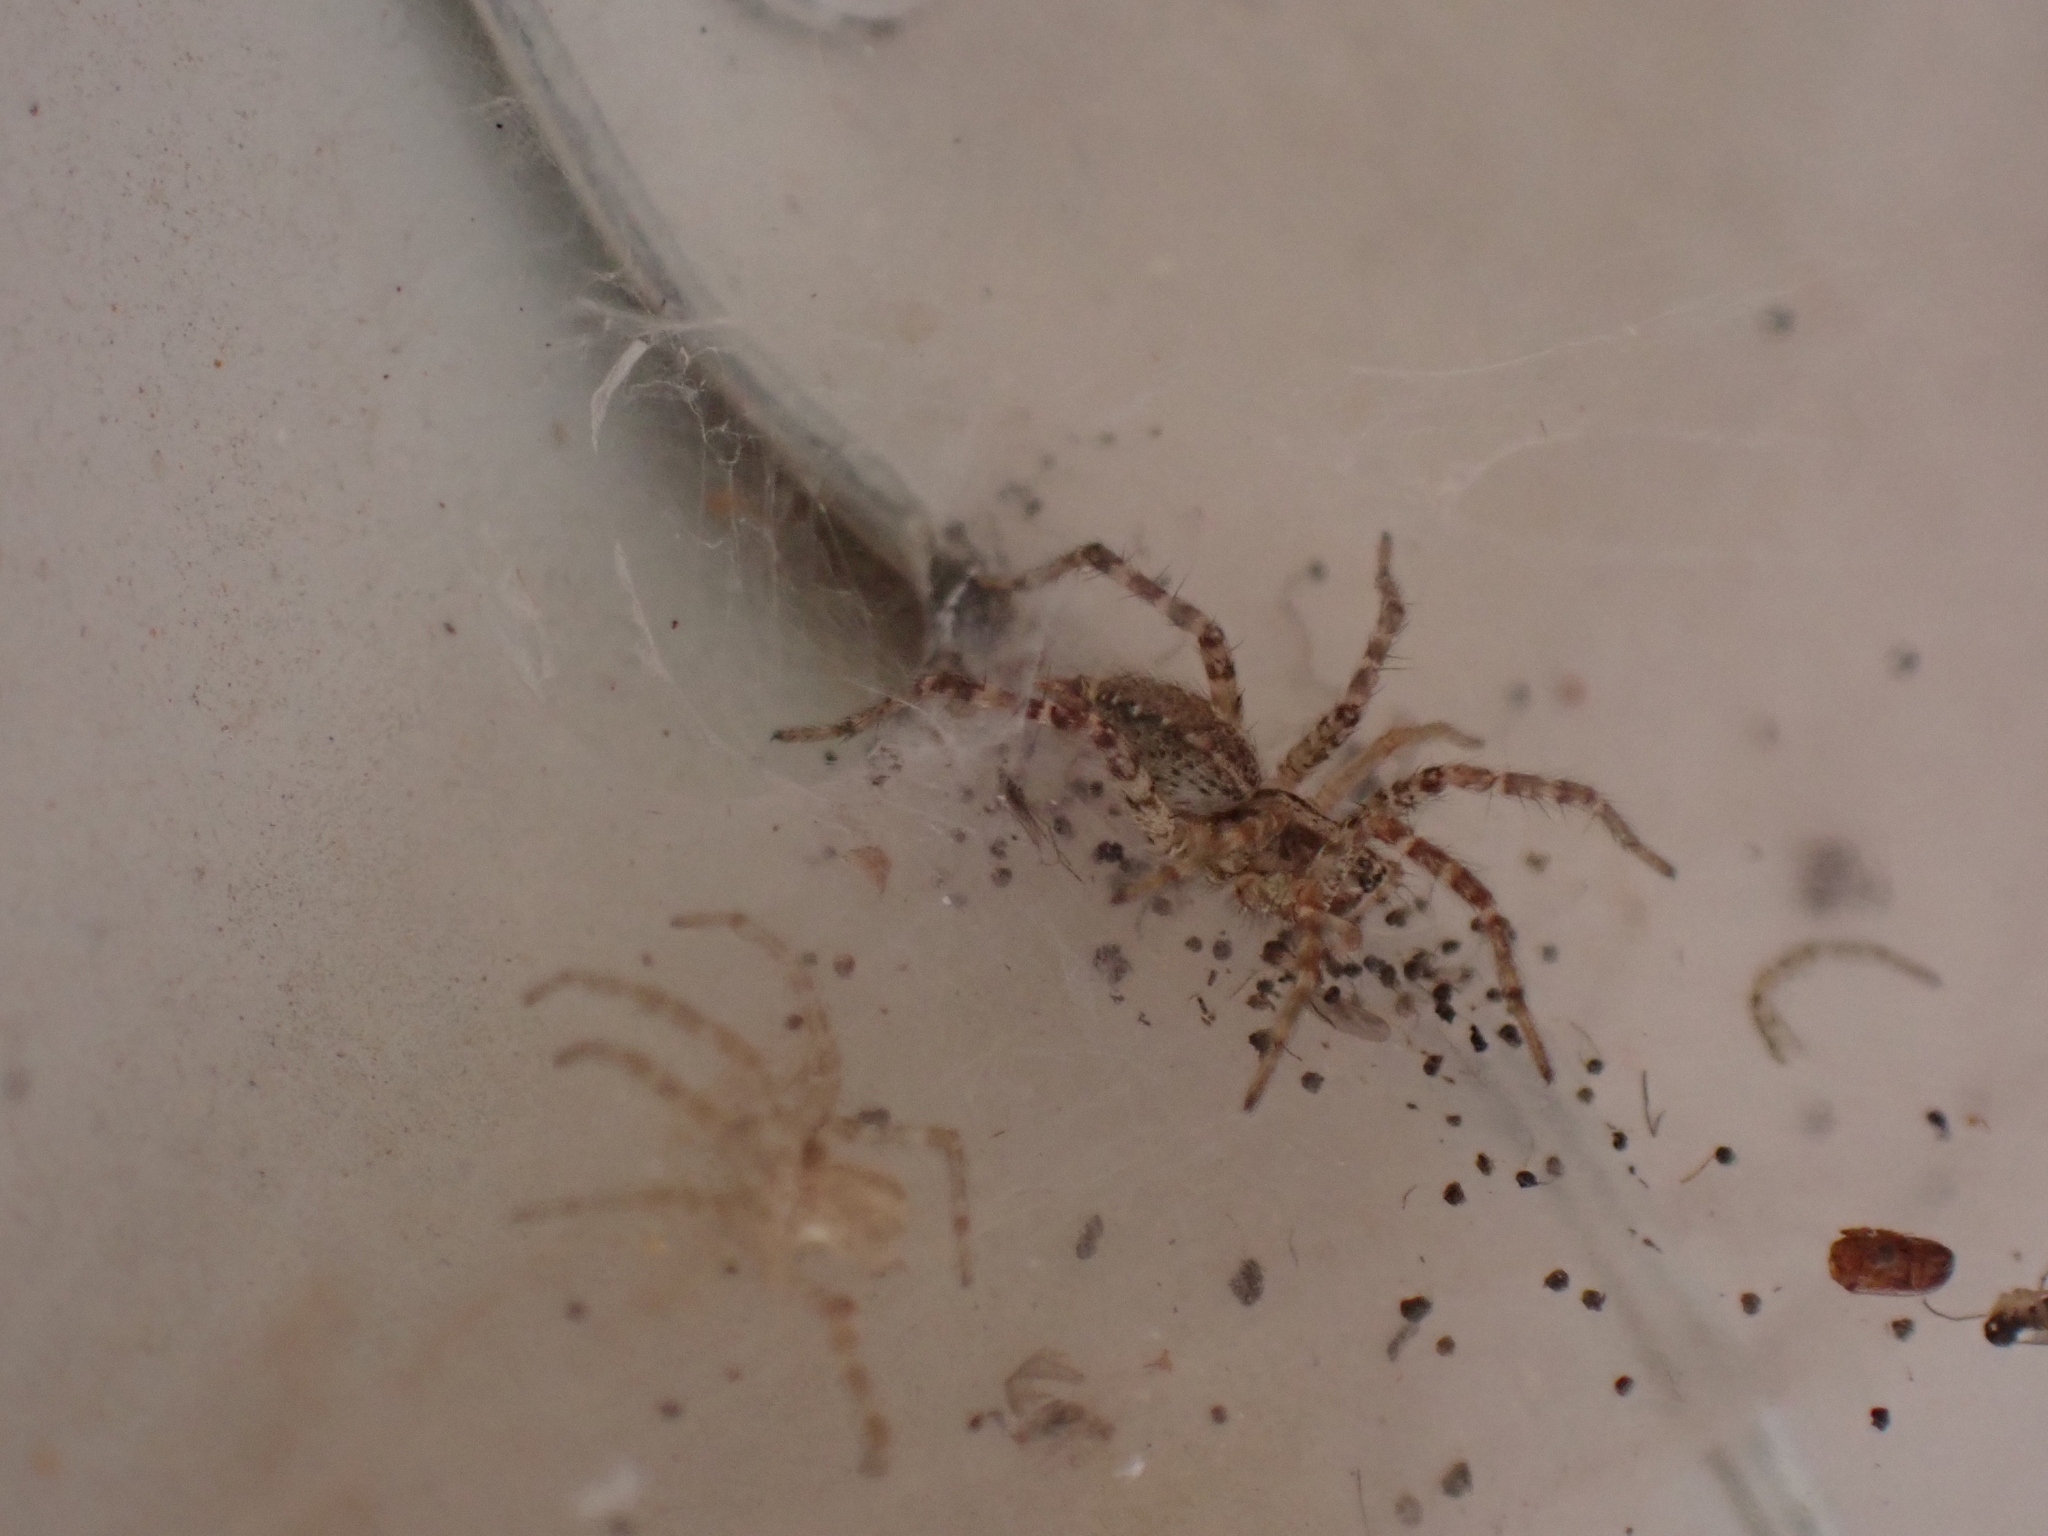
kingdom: Animalia
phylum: Arthropoda
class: Arachnida
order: Araneae
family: Agelenidae
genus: Barronopsis
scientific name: Barronopsis texana
